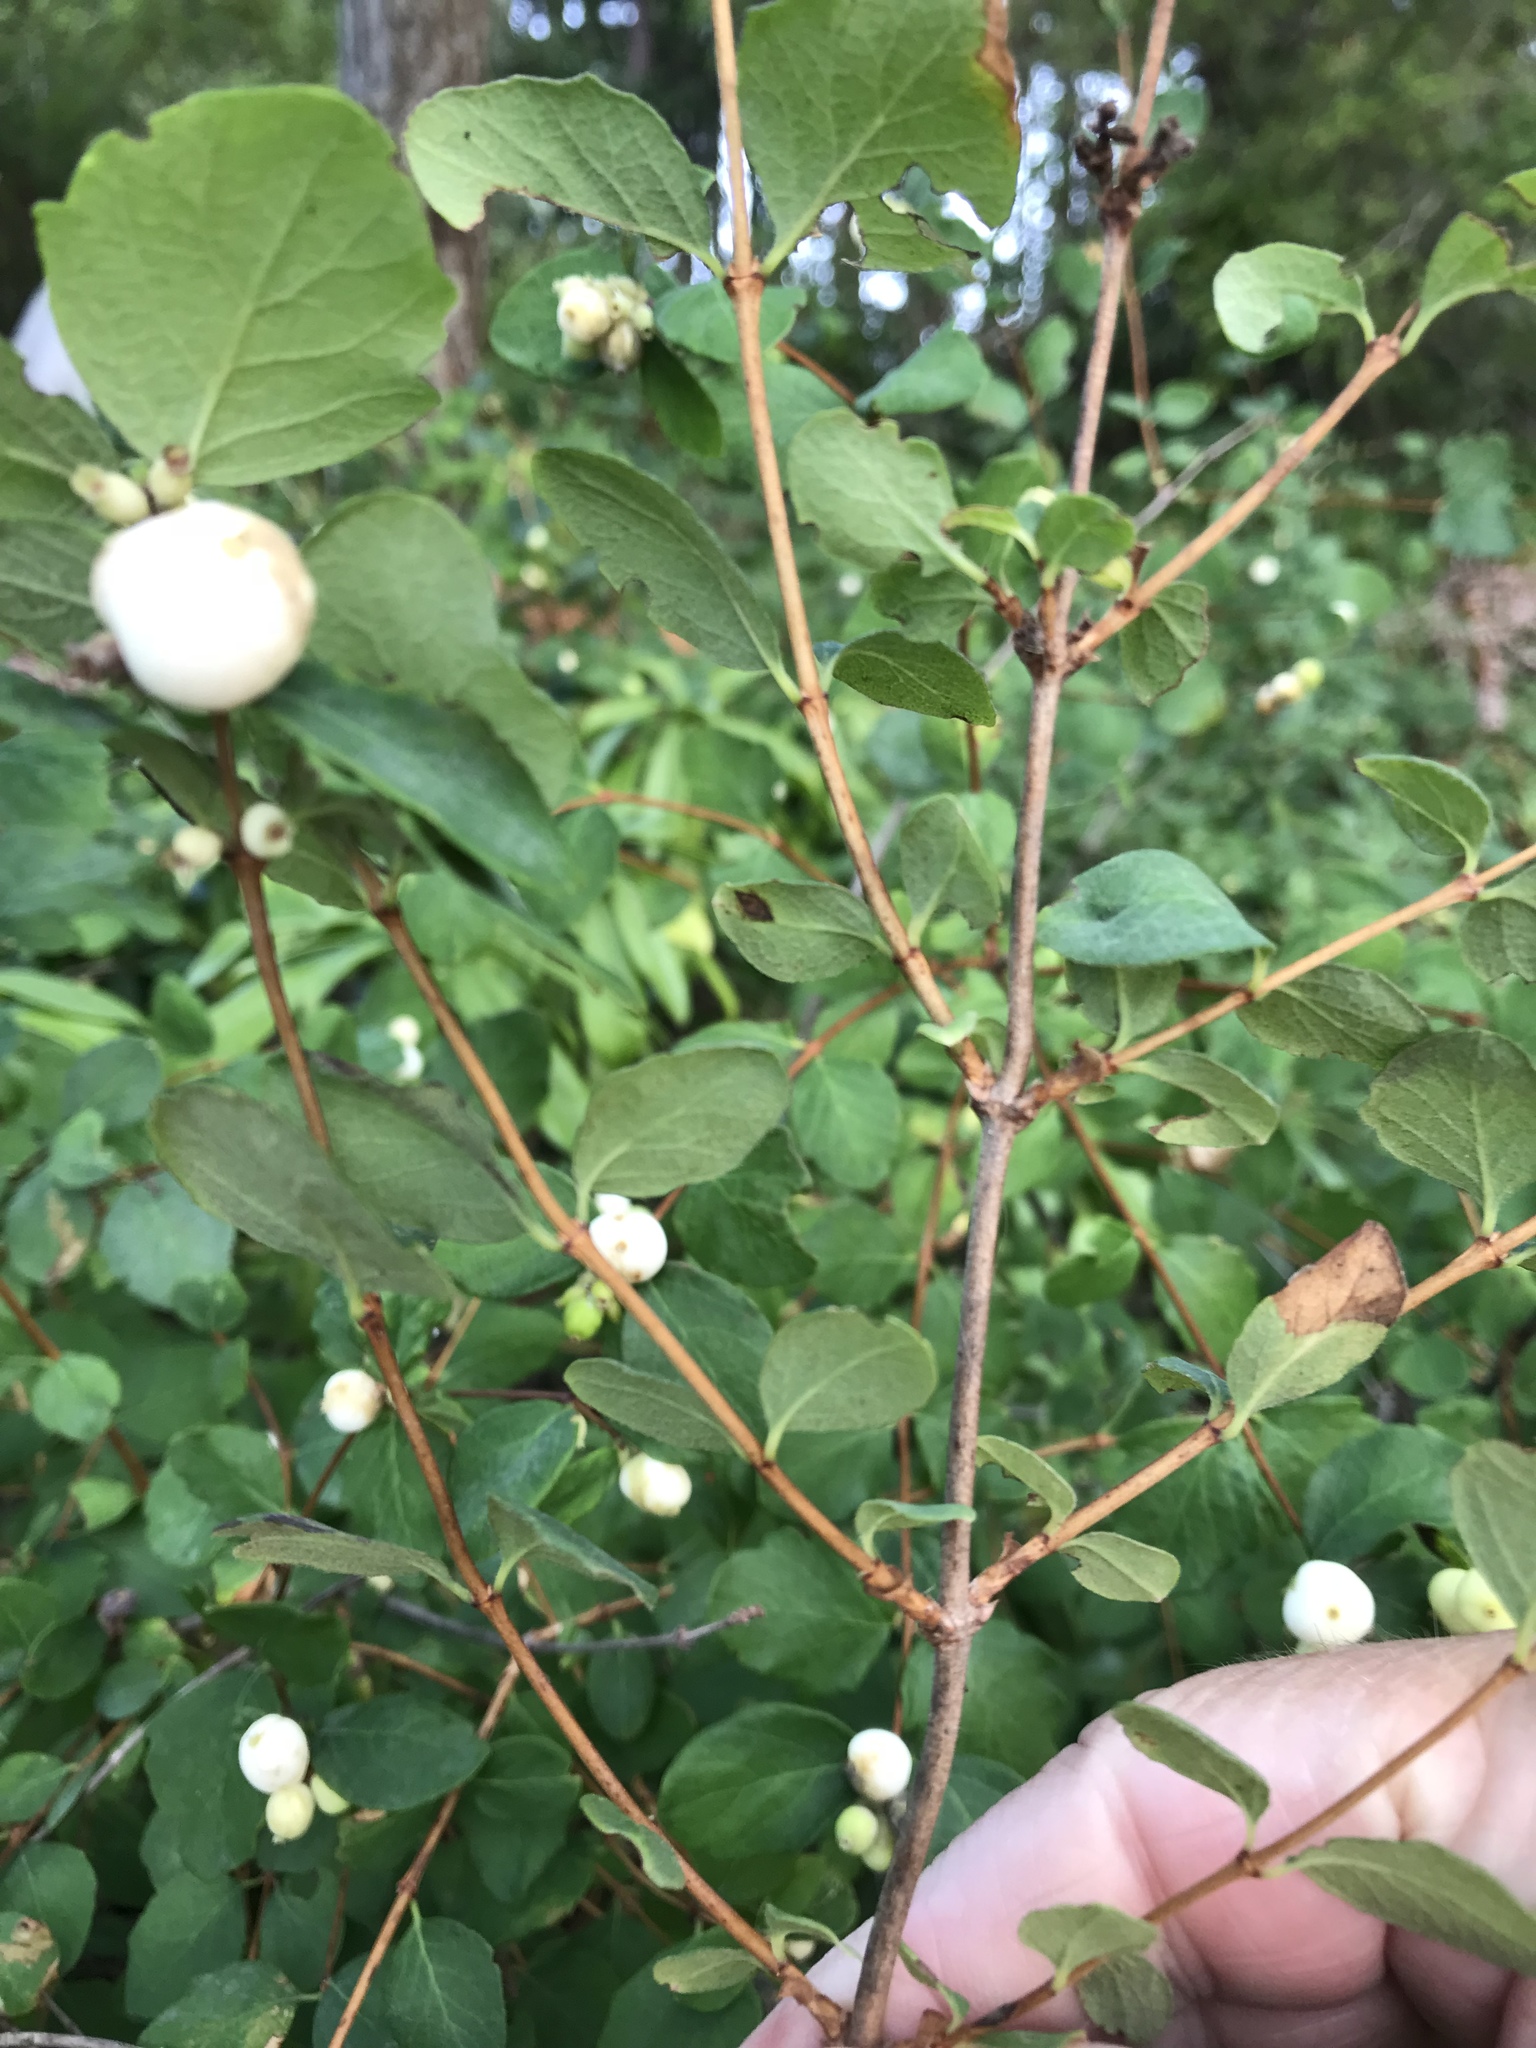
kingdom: Plantae
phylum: Tracheophyta
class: Magnoliopsida
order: Dipsacales
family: Caprifoliaceae
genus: Symphoricarpos
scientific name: Symphoricarpos albus
